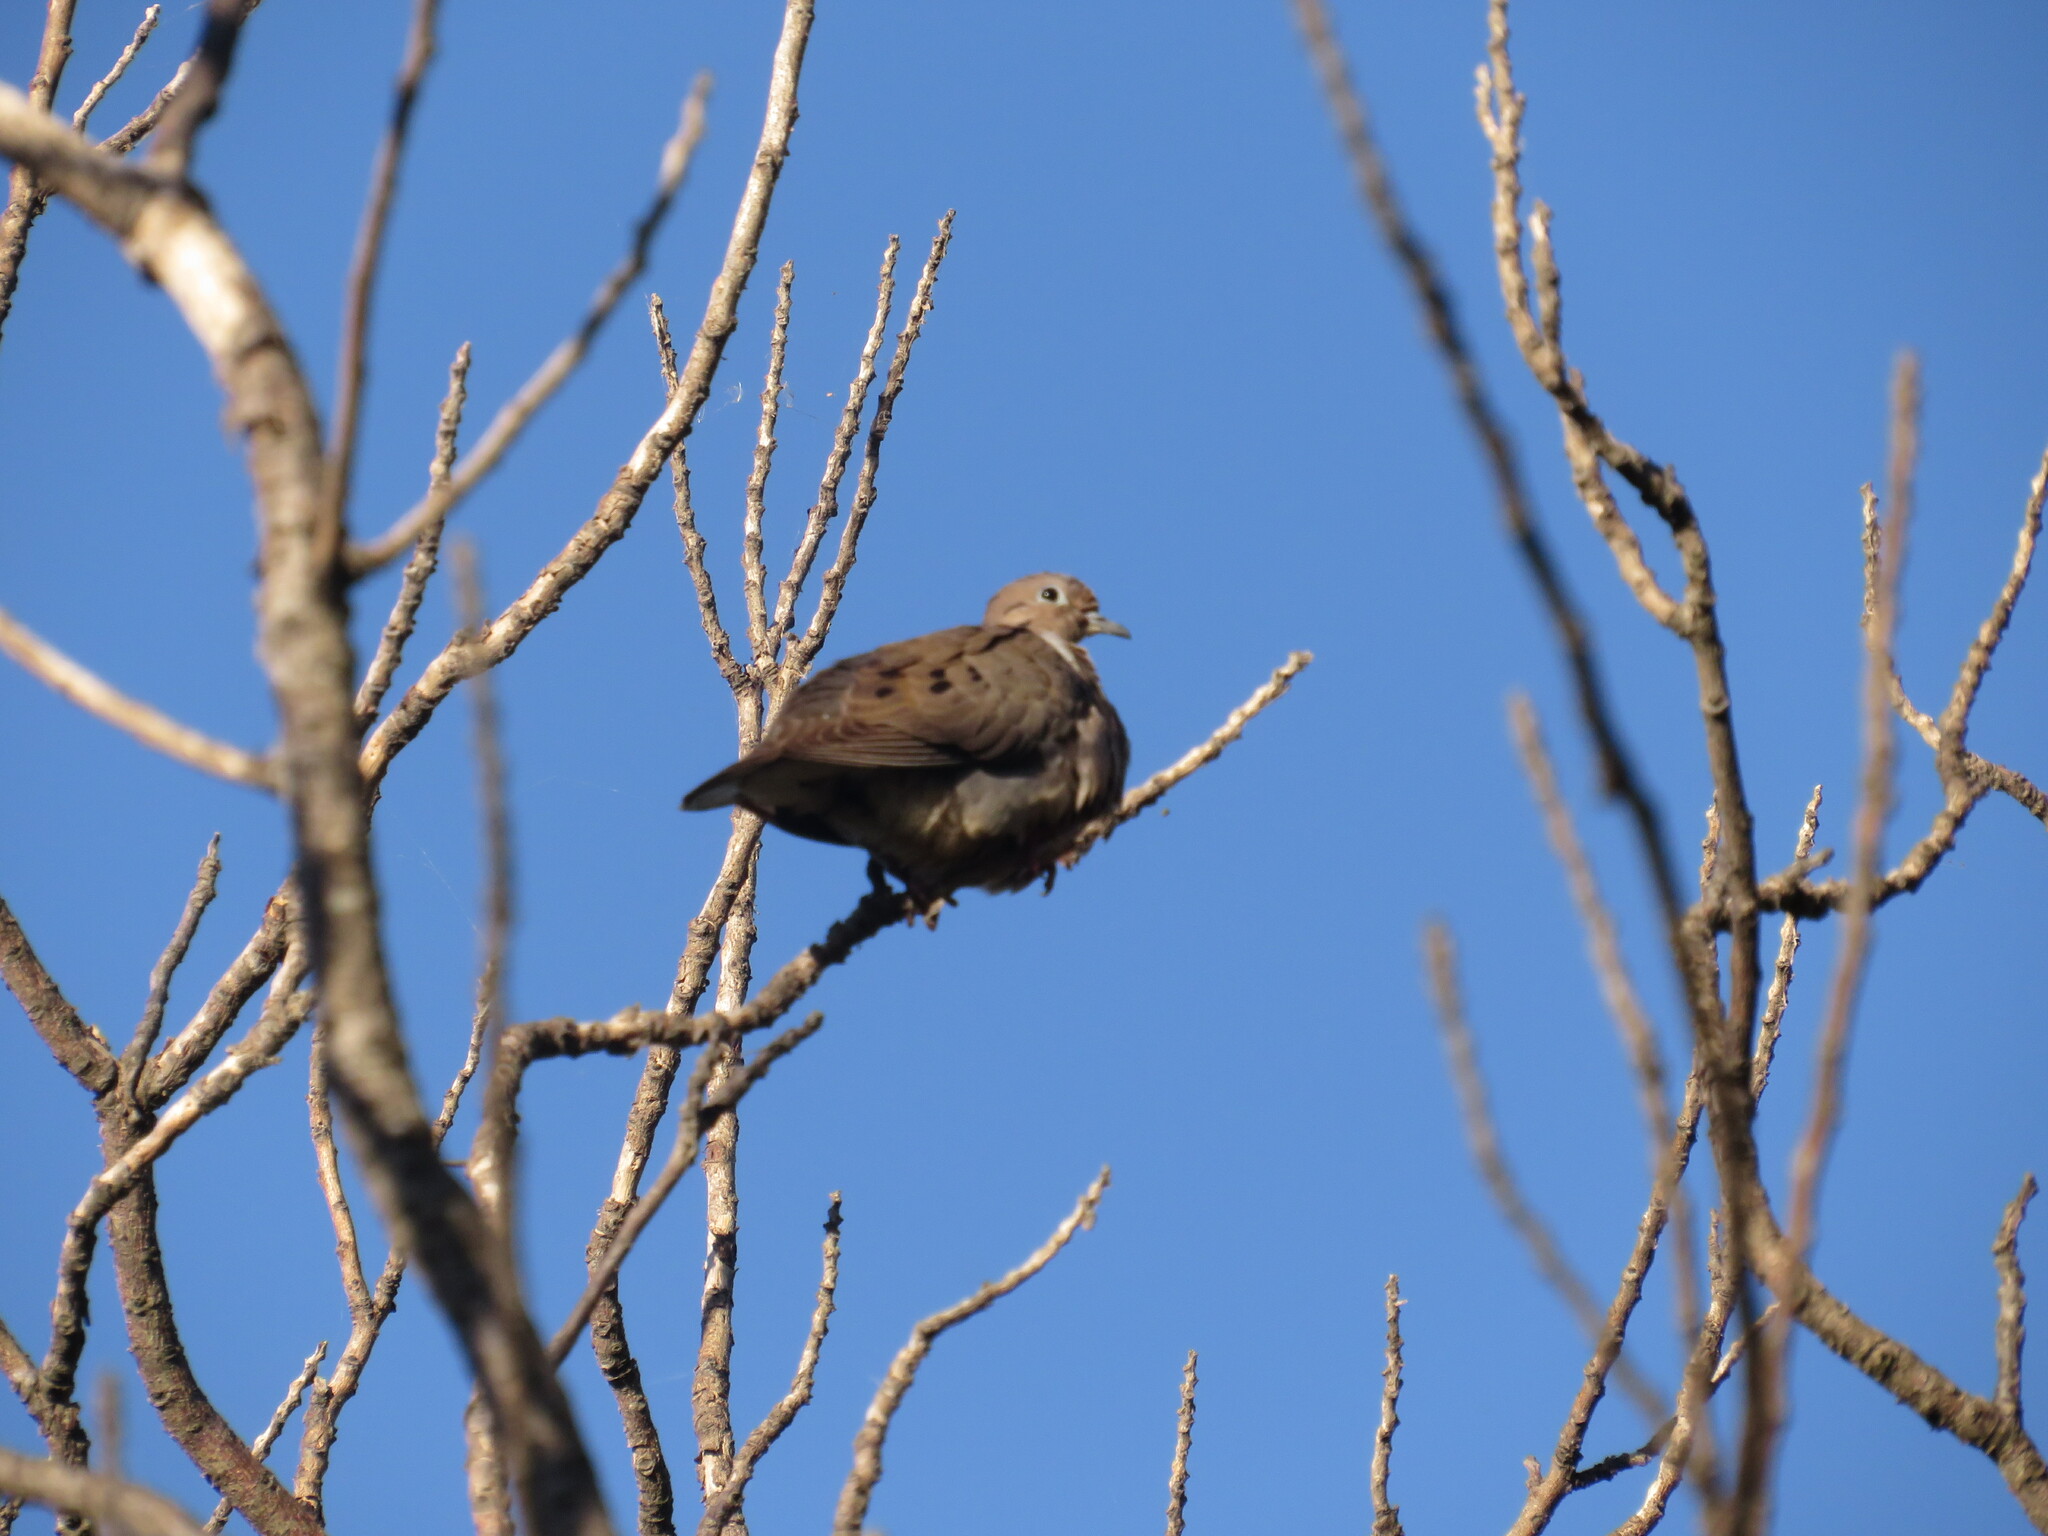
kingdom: Animalia
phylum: Chordata
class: Aves
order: Columbiformes
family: Columbidae
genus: Zenaida
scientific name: Zenaida auriculata
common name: Eared dove
